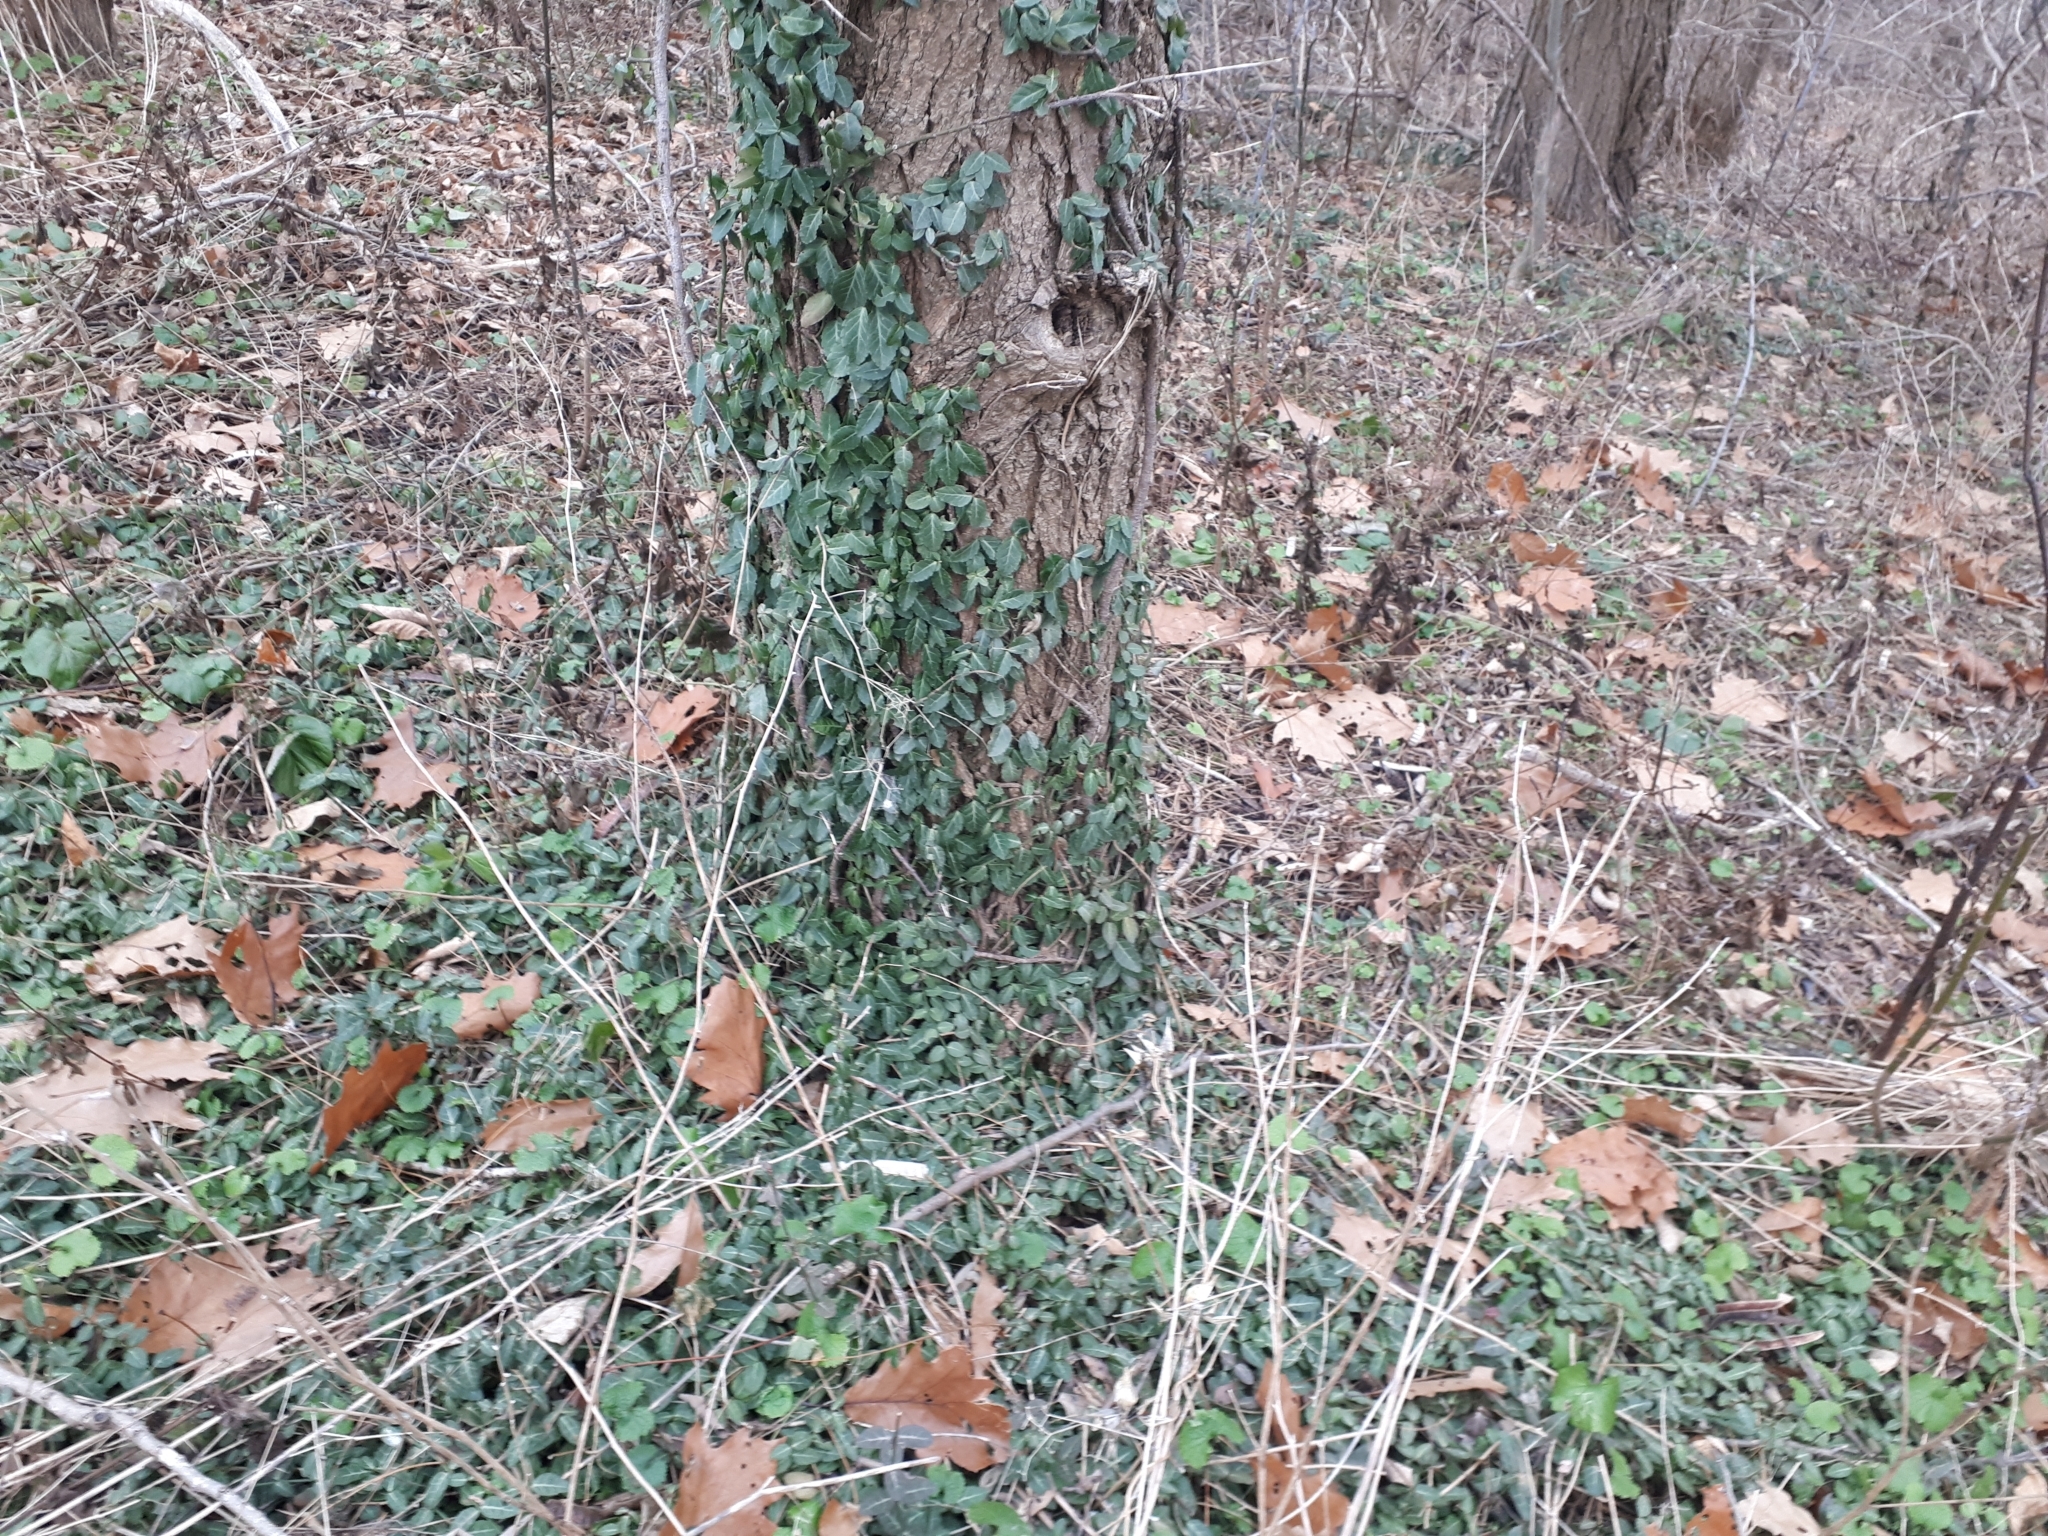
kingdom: Plantae
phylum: Tracheophyta
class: Magnoliopsida
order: Celastrales
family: Celastraceae
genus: Euonymus
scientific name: Euonymus fortunei
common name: Climbing euonymus
